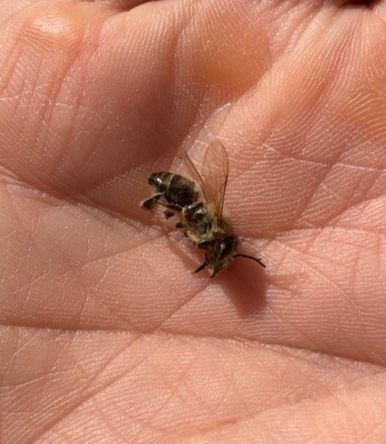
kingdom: Animalia
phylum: Arthropoda
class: Insecta
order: Hymenoptera
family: Apidae
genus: Apis
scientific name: Apis mellifera
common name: Honey bee
